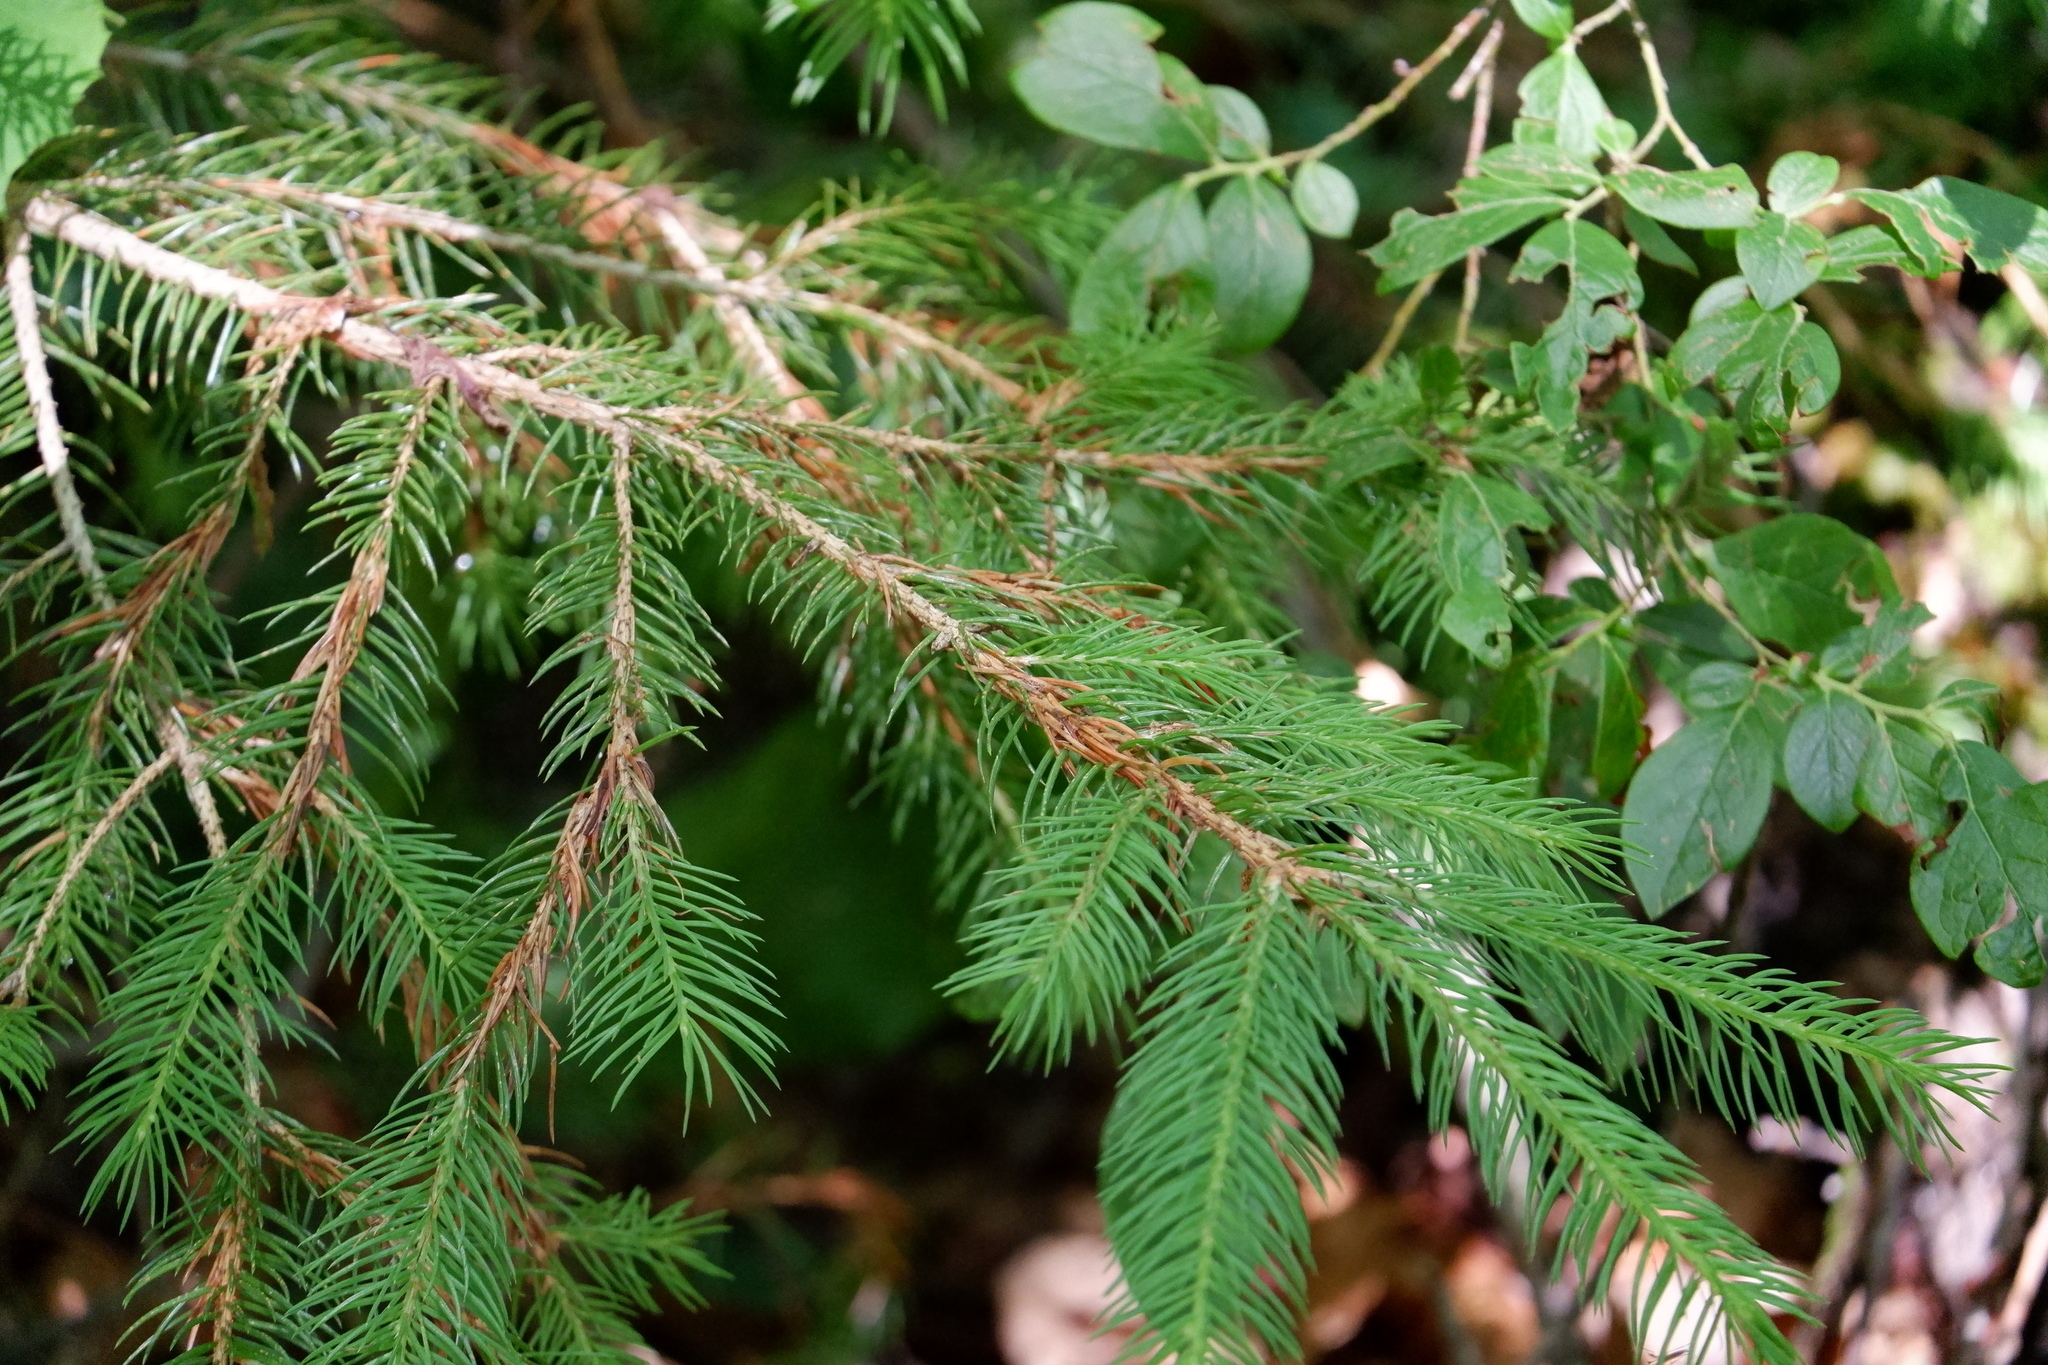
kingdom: Plantae
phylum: Tracheophyta
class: Pinopsida
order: Pinales
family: Pinaceae
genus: Picea
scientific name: Picea abies
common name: Norway spruce
